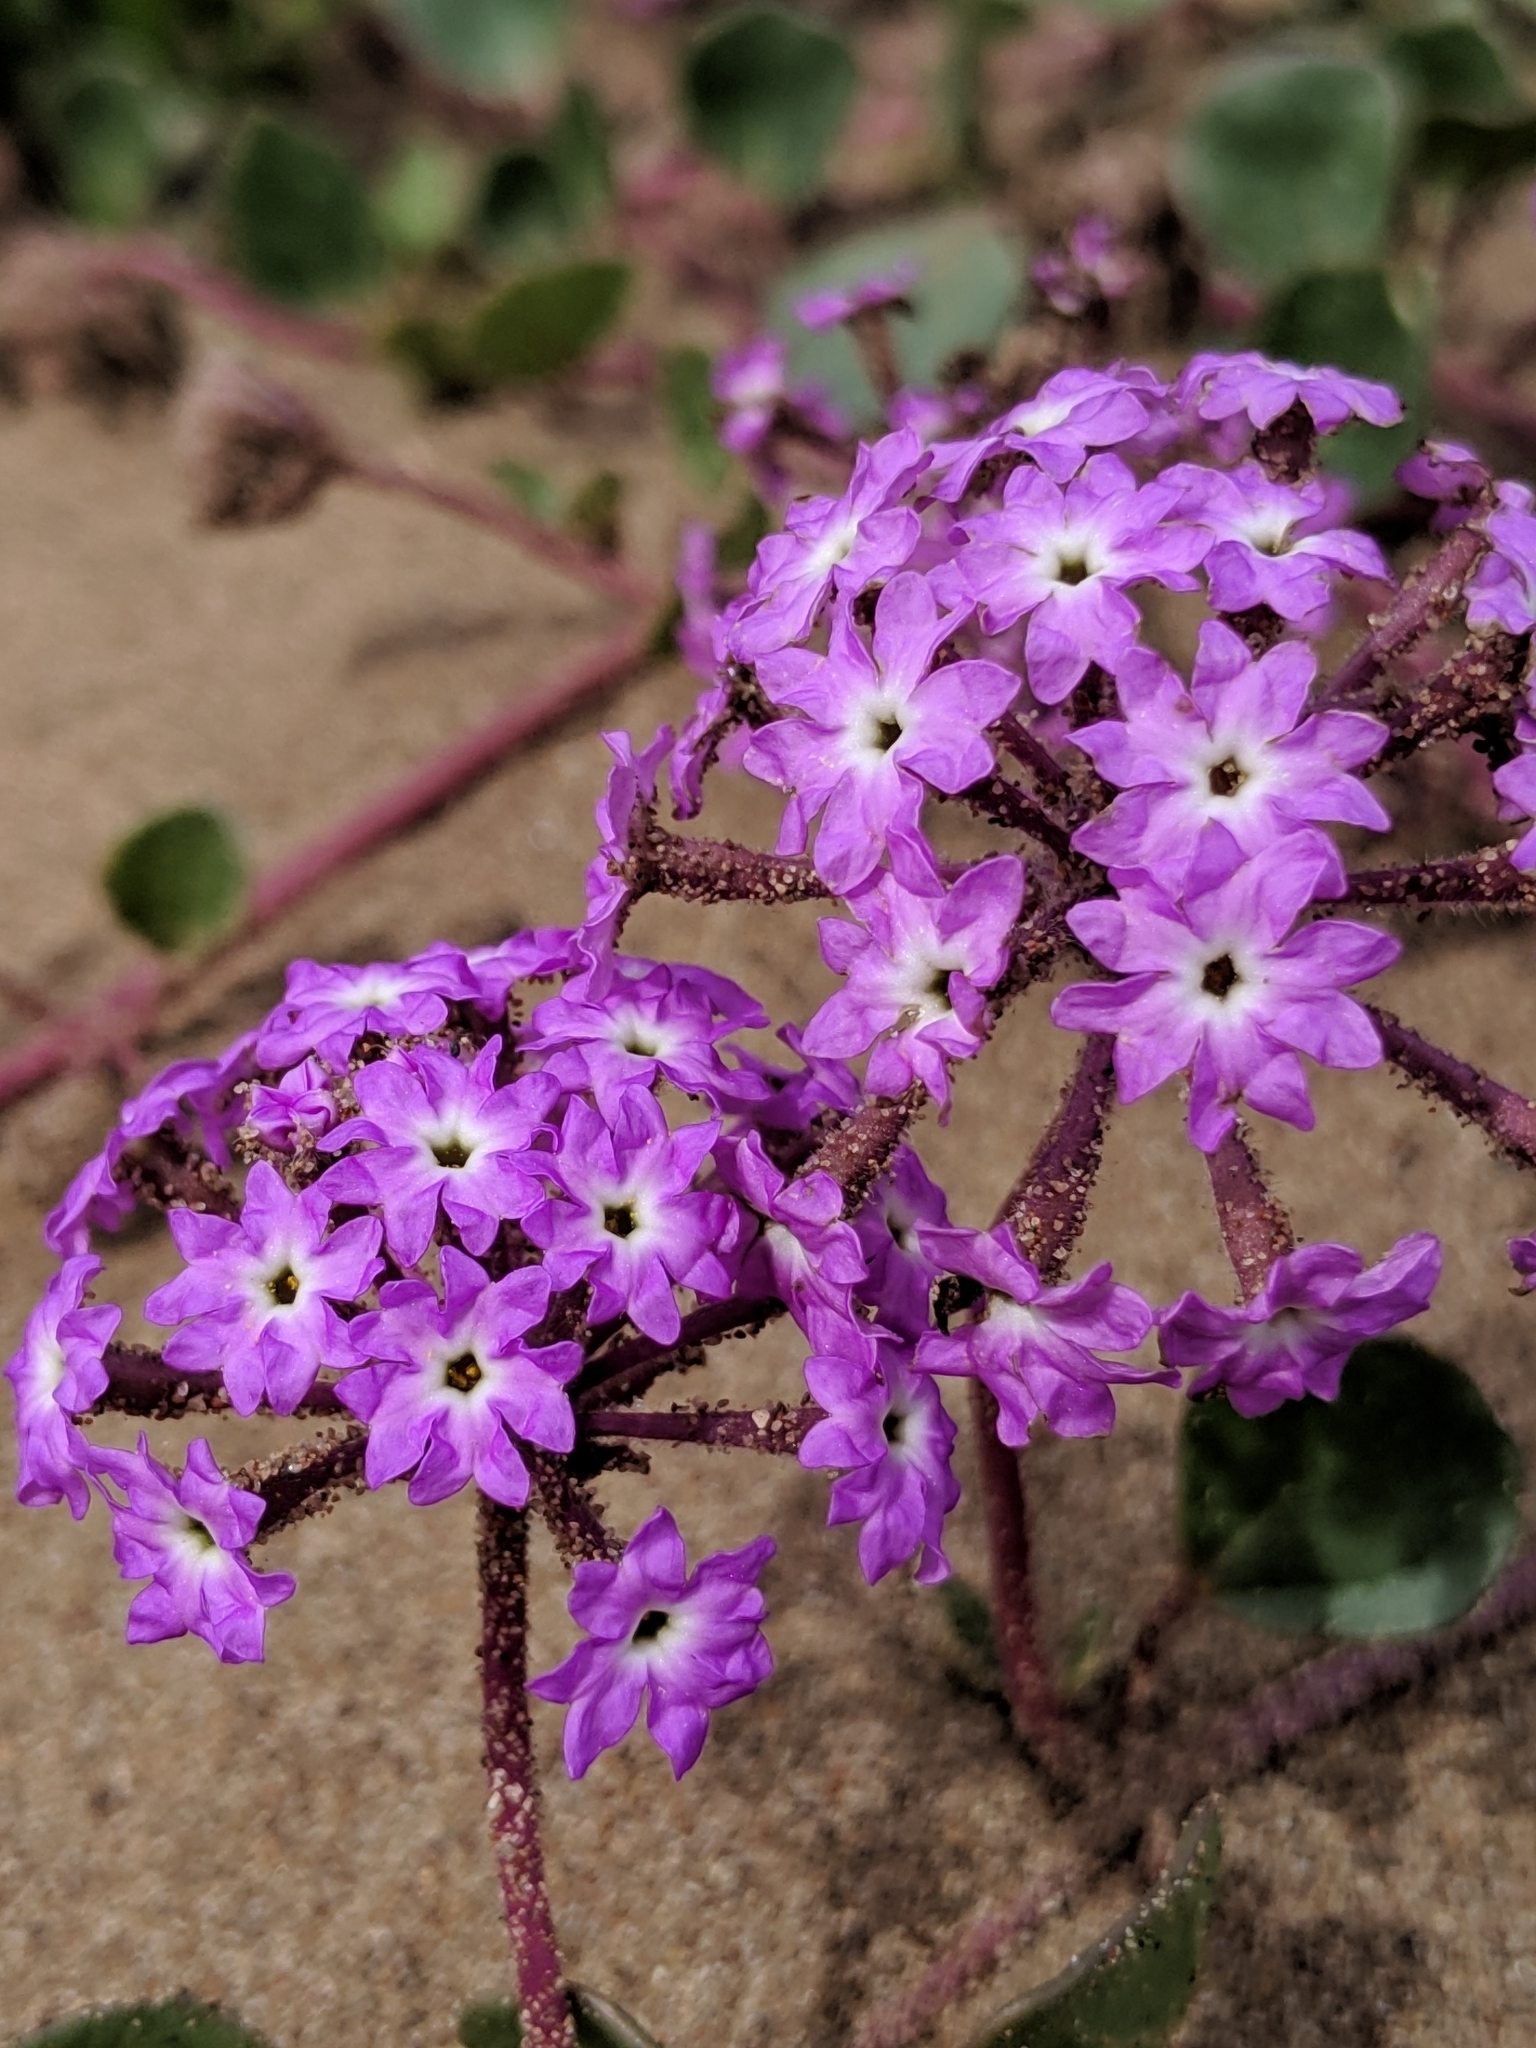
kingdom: Plantae
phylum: Tracheophyta
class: Magnoliopsida
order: Caryophyllales
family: Nyctaginaceae
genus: Abronia
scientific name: Abronia umbellata
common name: Sand-verbena
